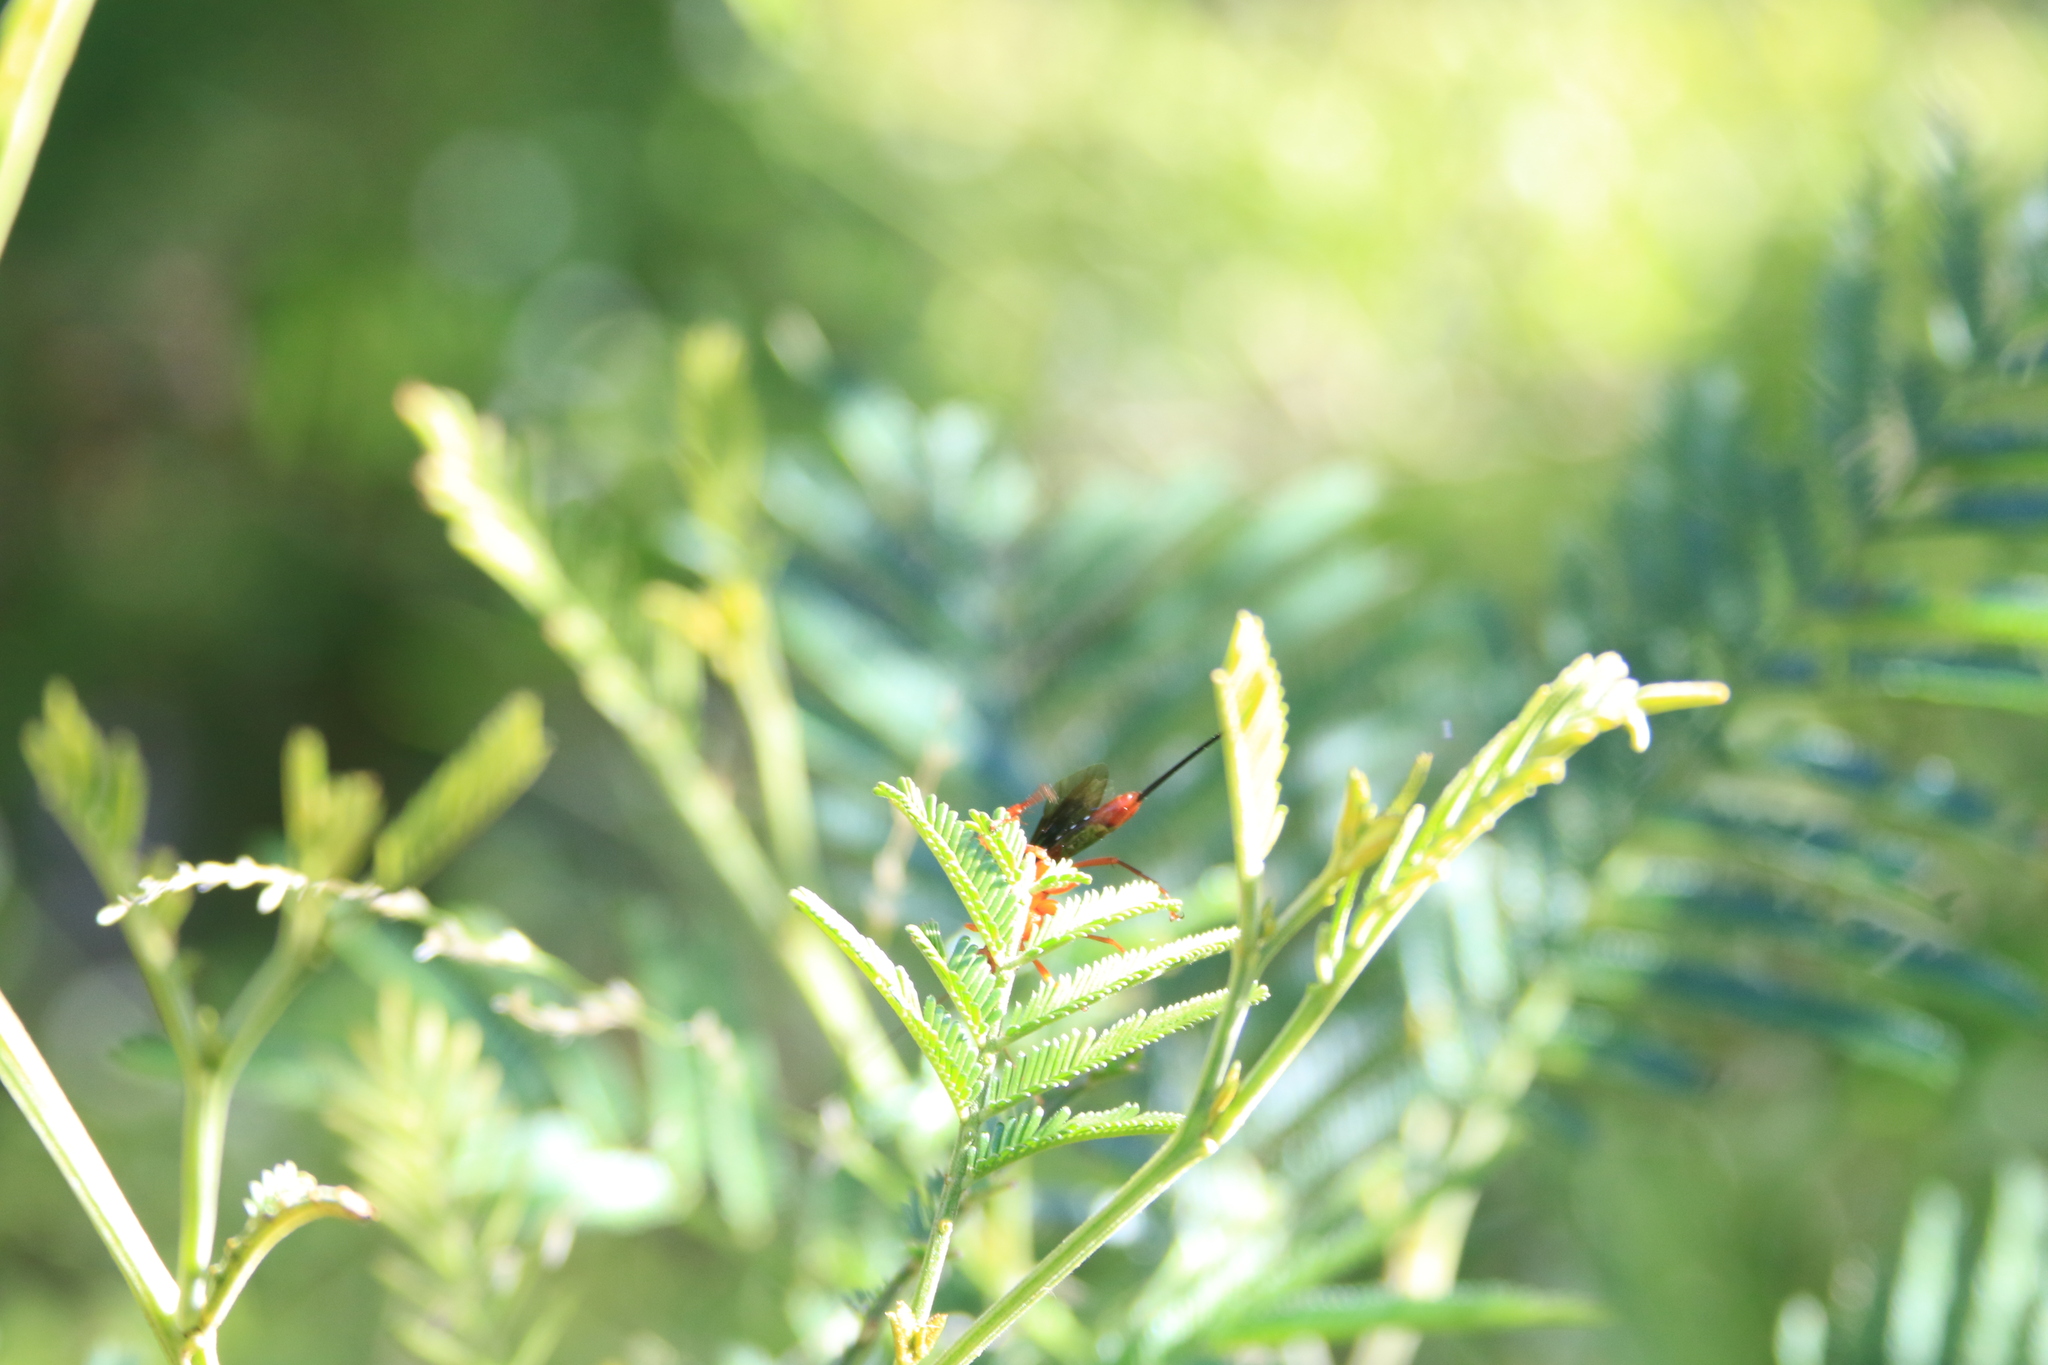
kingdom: Animalia
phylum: Arthropoda
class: Insecta
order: Hymenoptera
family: Ichneumonidae
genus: Lissopimpla
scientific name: Lissopimpla excelsa
